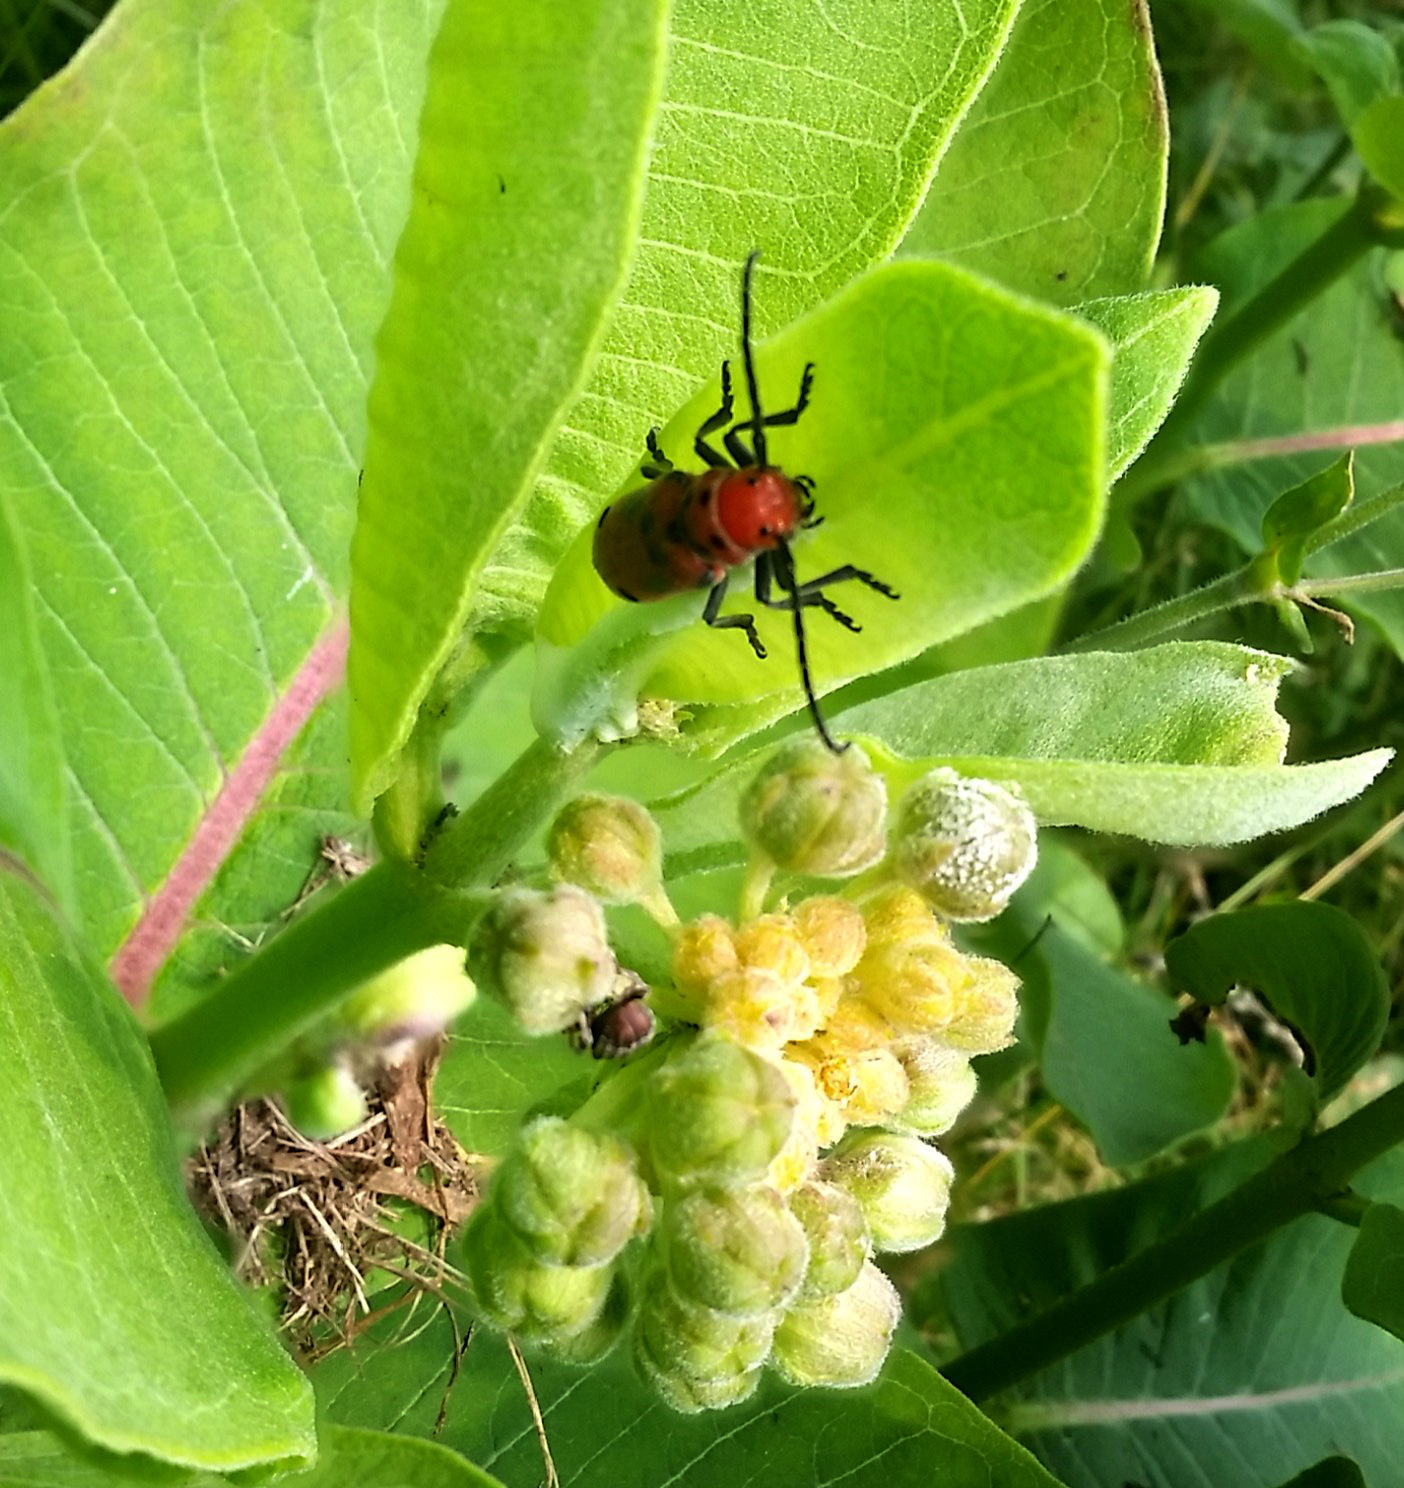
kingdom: Animalia
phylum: Arthropoda
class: Insecta
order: Coleoptera
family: Cerambycidae
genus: Tetraopes
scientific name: Tetraopes tetrophthalmus
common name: Red milkweed beetle
